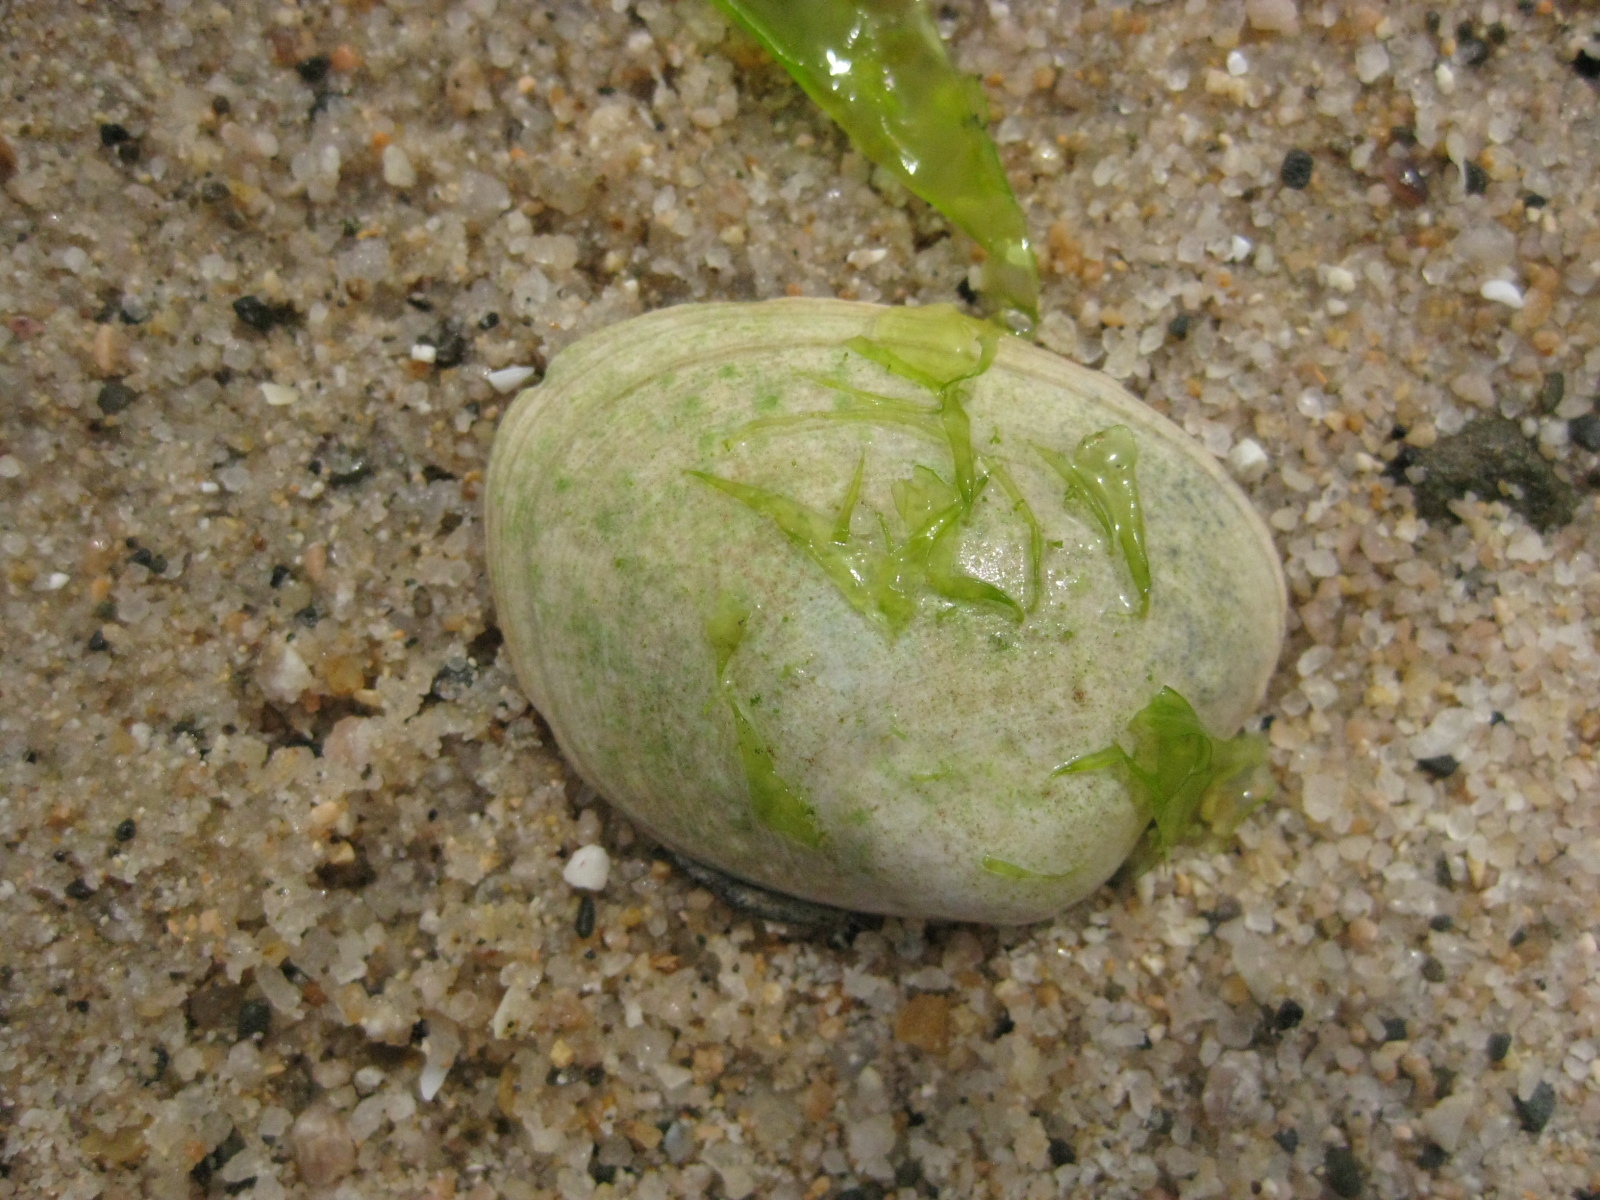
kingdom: Animalia
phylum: Mollusca
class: Bivalvia
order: Venerida
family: Veneridae
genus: Venerupis
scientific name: Venerupis largillierti
